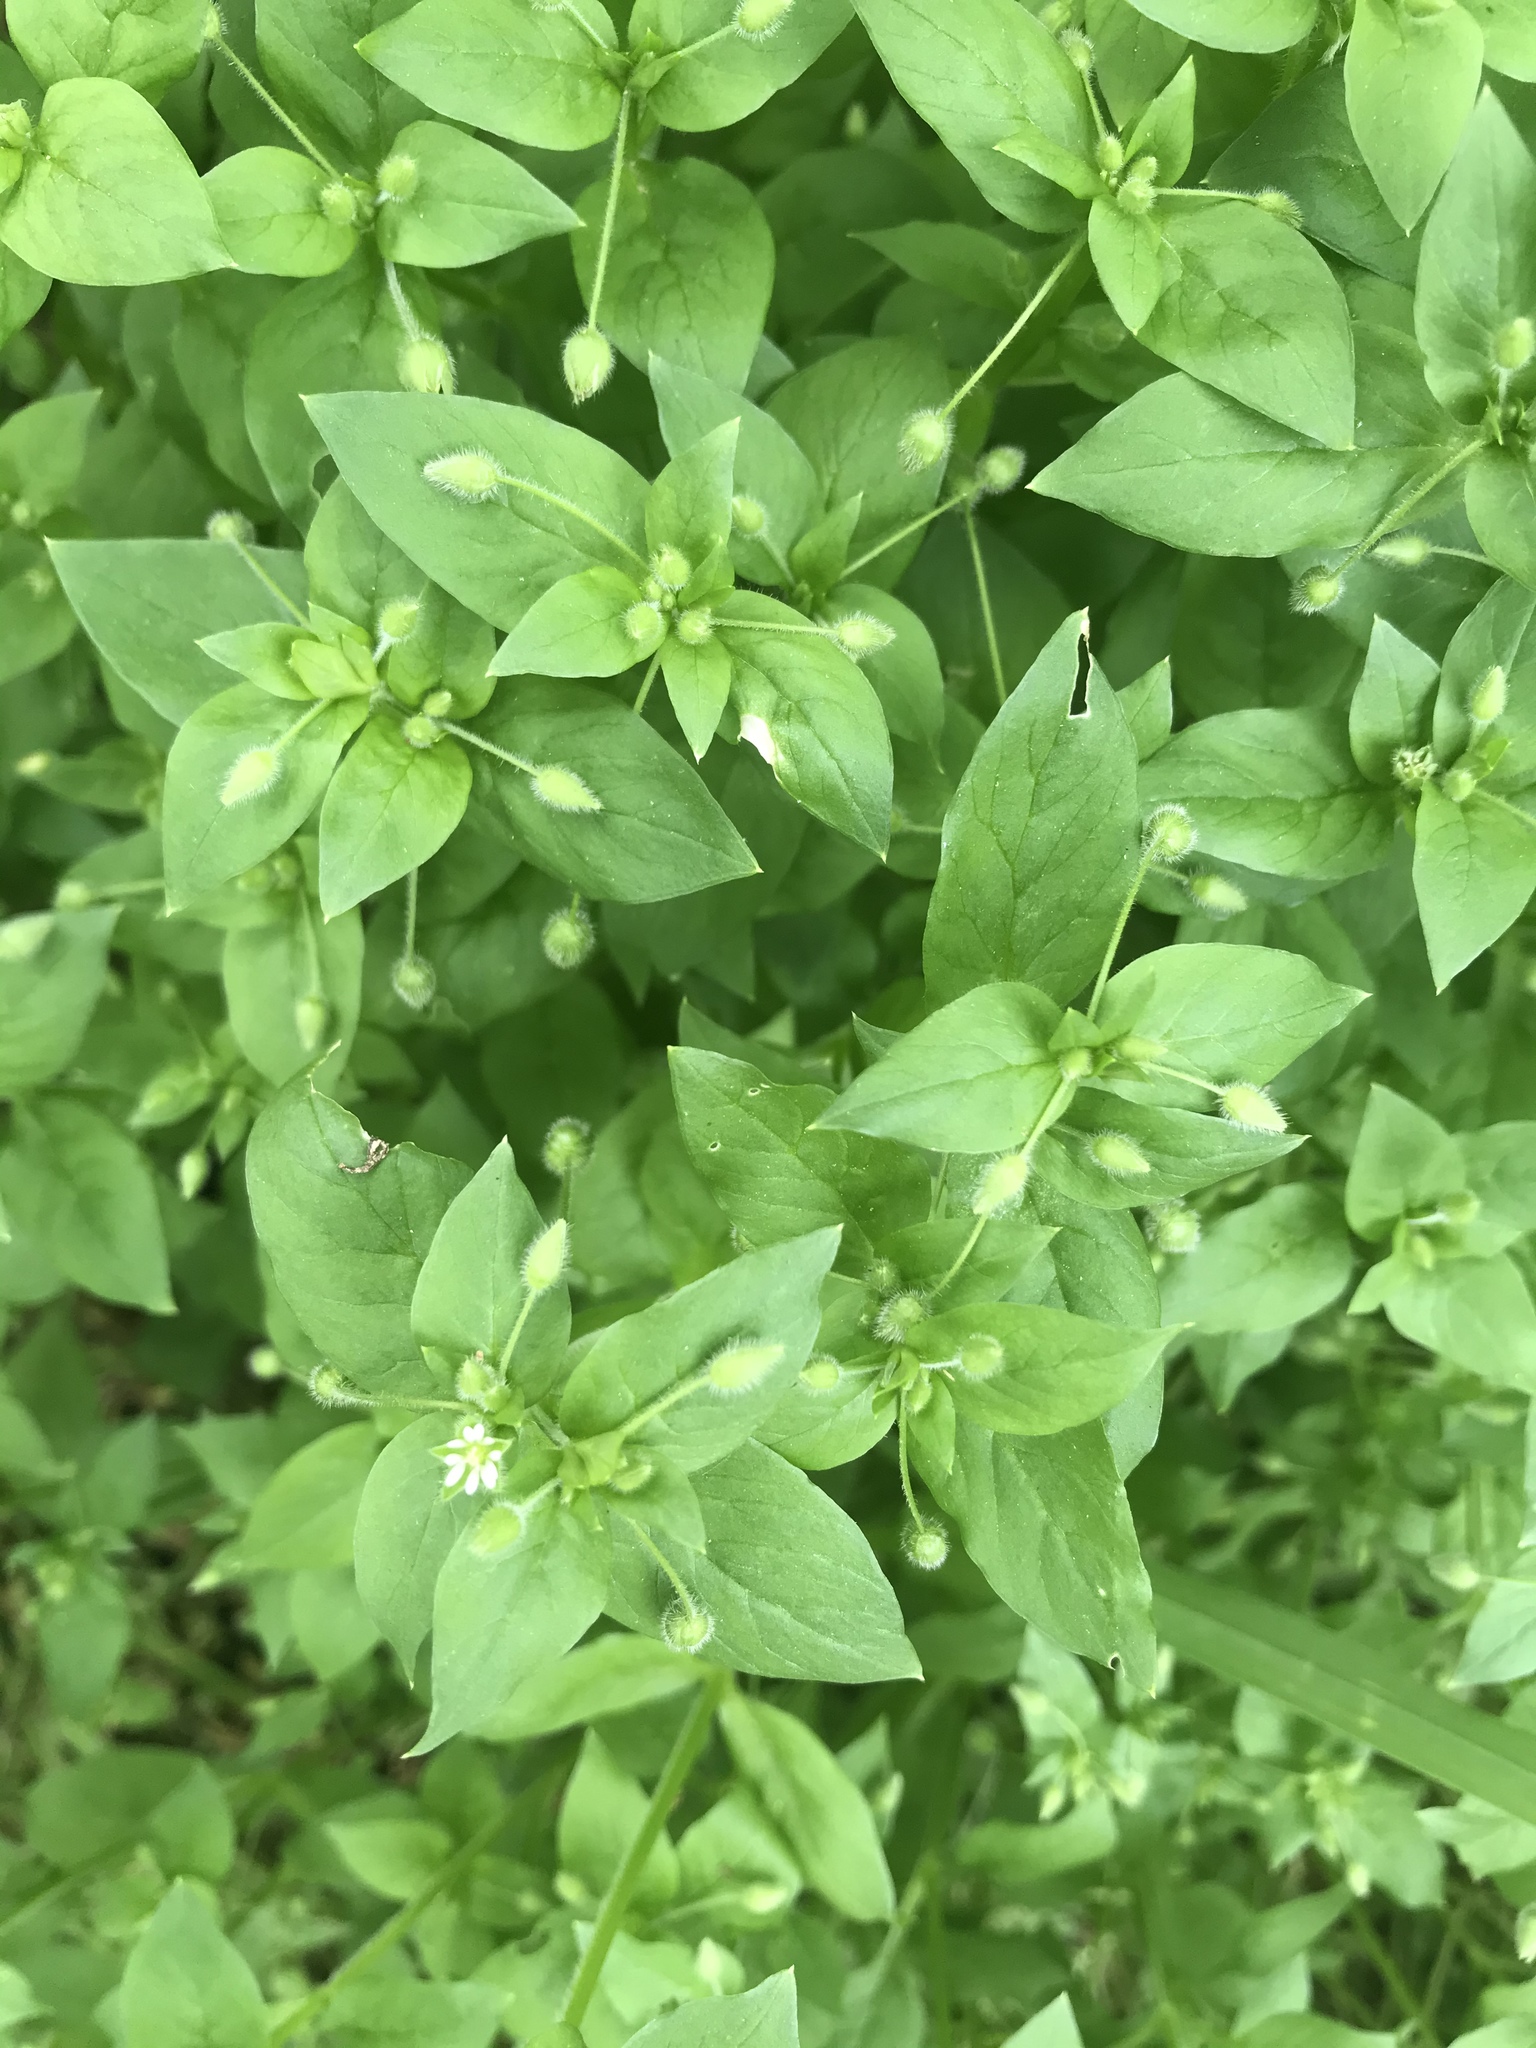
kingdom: Plantae
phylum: Tracheophyta
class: Magnoliopsida
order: Caryophyllales
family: Caryophyllaceae
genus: Stellaria
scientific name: Stellaria media
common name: Common chickweed
